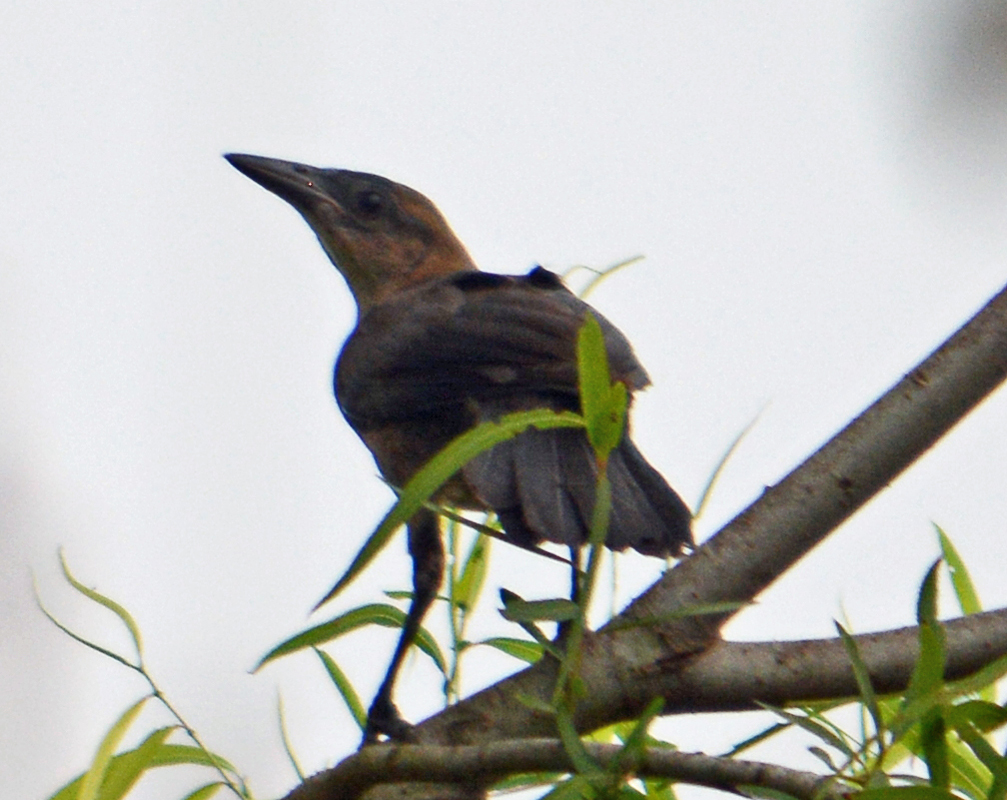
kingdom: Animalia
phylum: Chordata
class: Aves
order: Passeriformes
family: Icteridae
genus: Quiscalus
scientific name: Quiscalus mexicanus
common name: Great-tailed grackle
